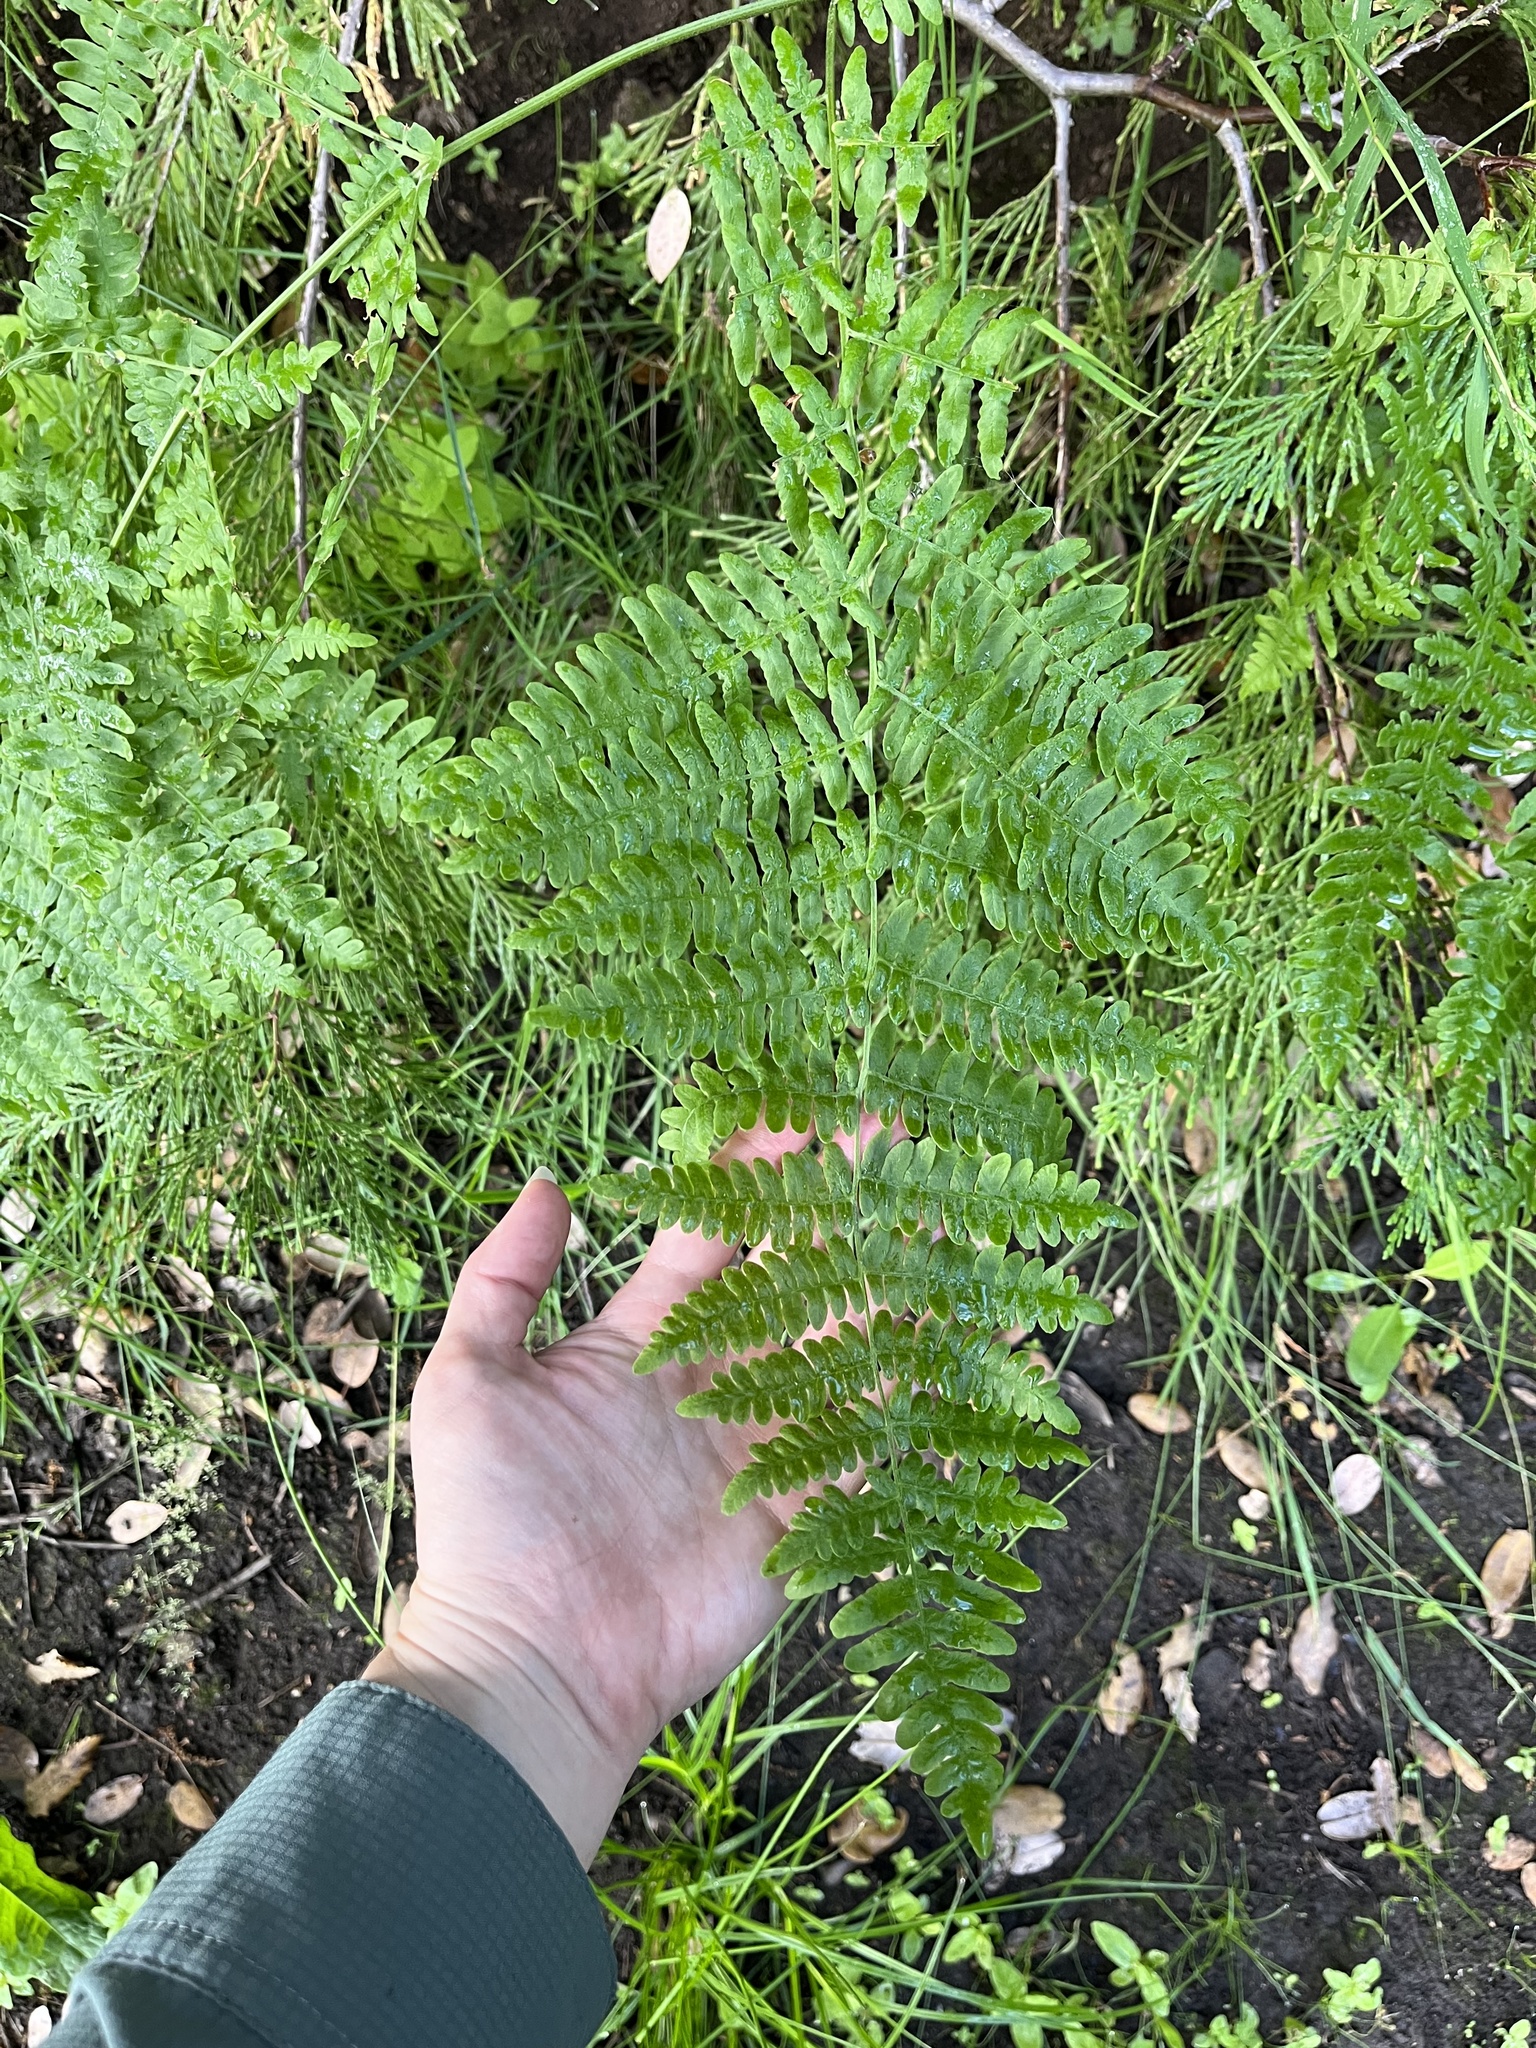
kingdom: Plantae
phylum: Tracheophyta
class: Polypodiopsida
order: Polypodiales
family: Dennstaedtiaceae
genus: Pteridium
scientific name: Pteridium aquilinum
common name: Bracken
